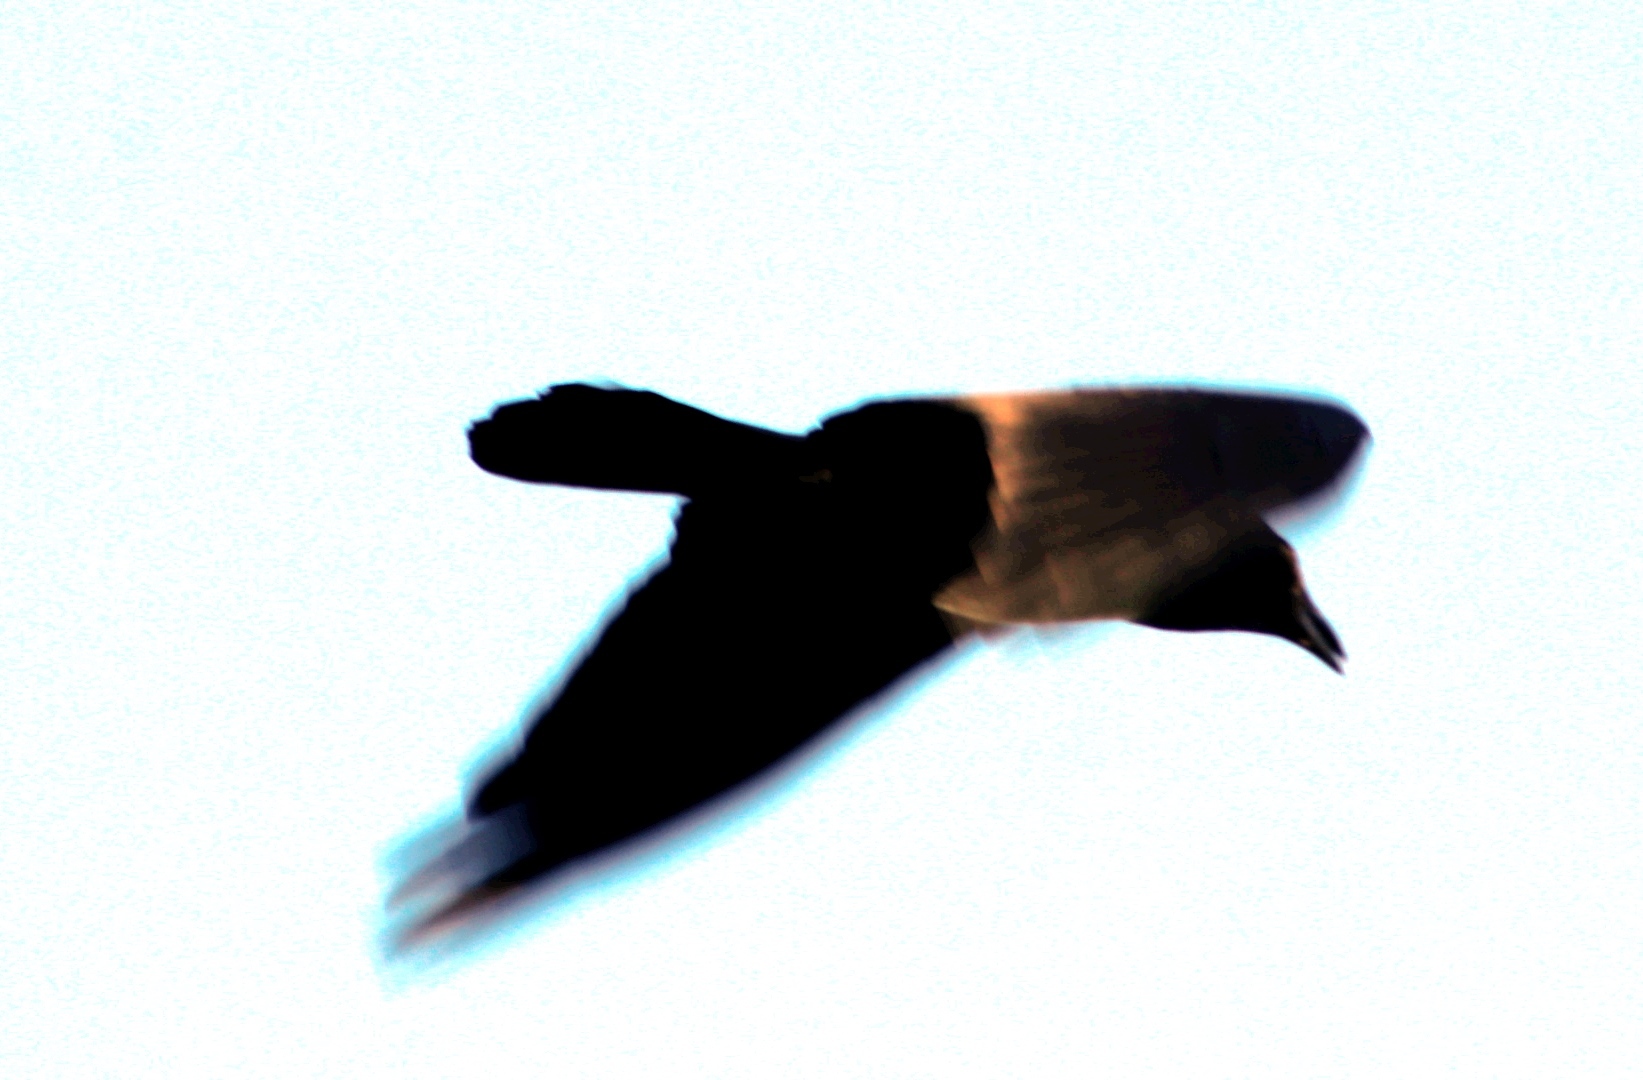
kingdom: Animalia
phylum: Chordata
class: Aves
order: Passeriformes
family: Corvidae
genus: Corvus
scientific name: Corvus albus
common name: Pied crow
